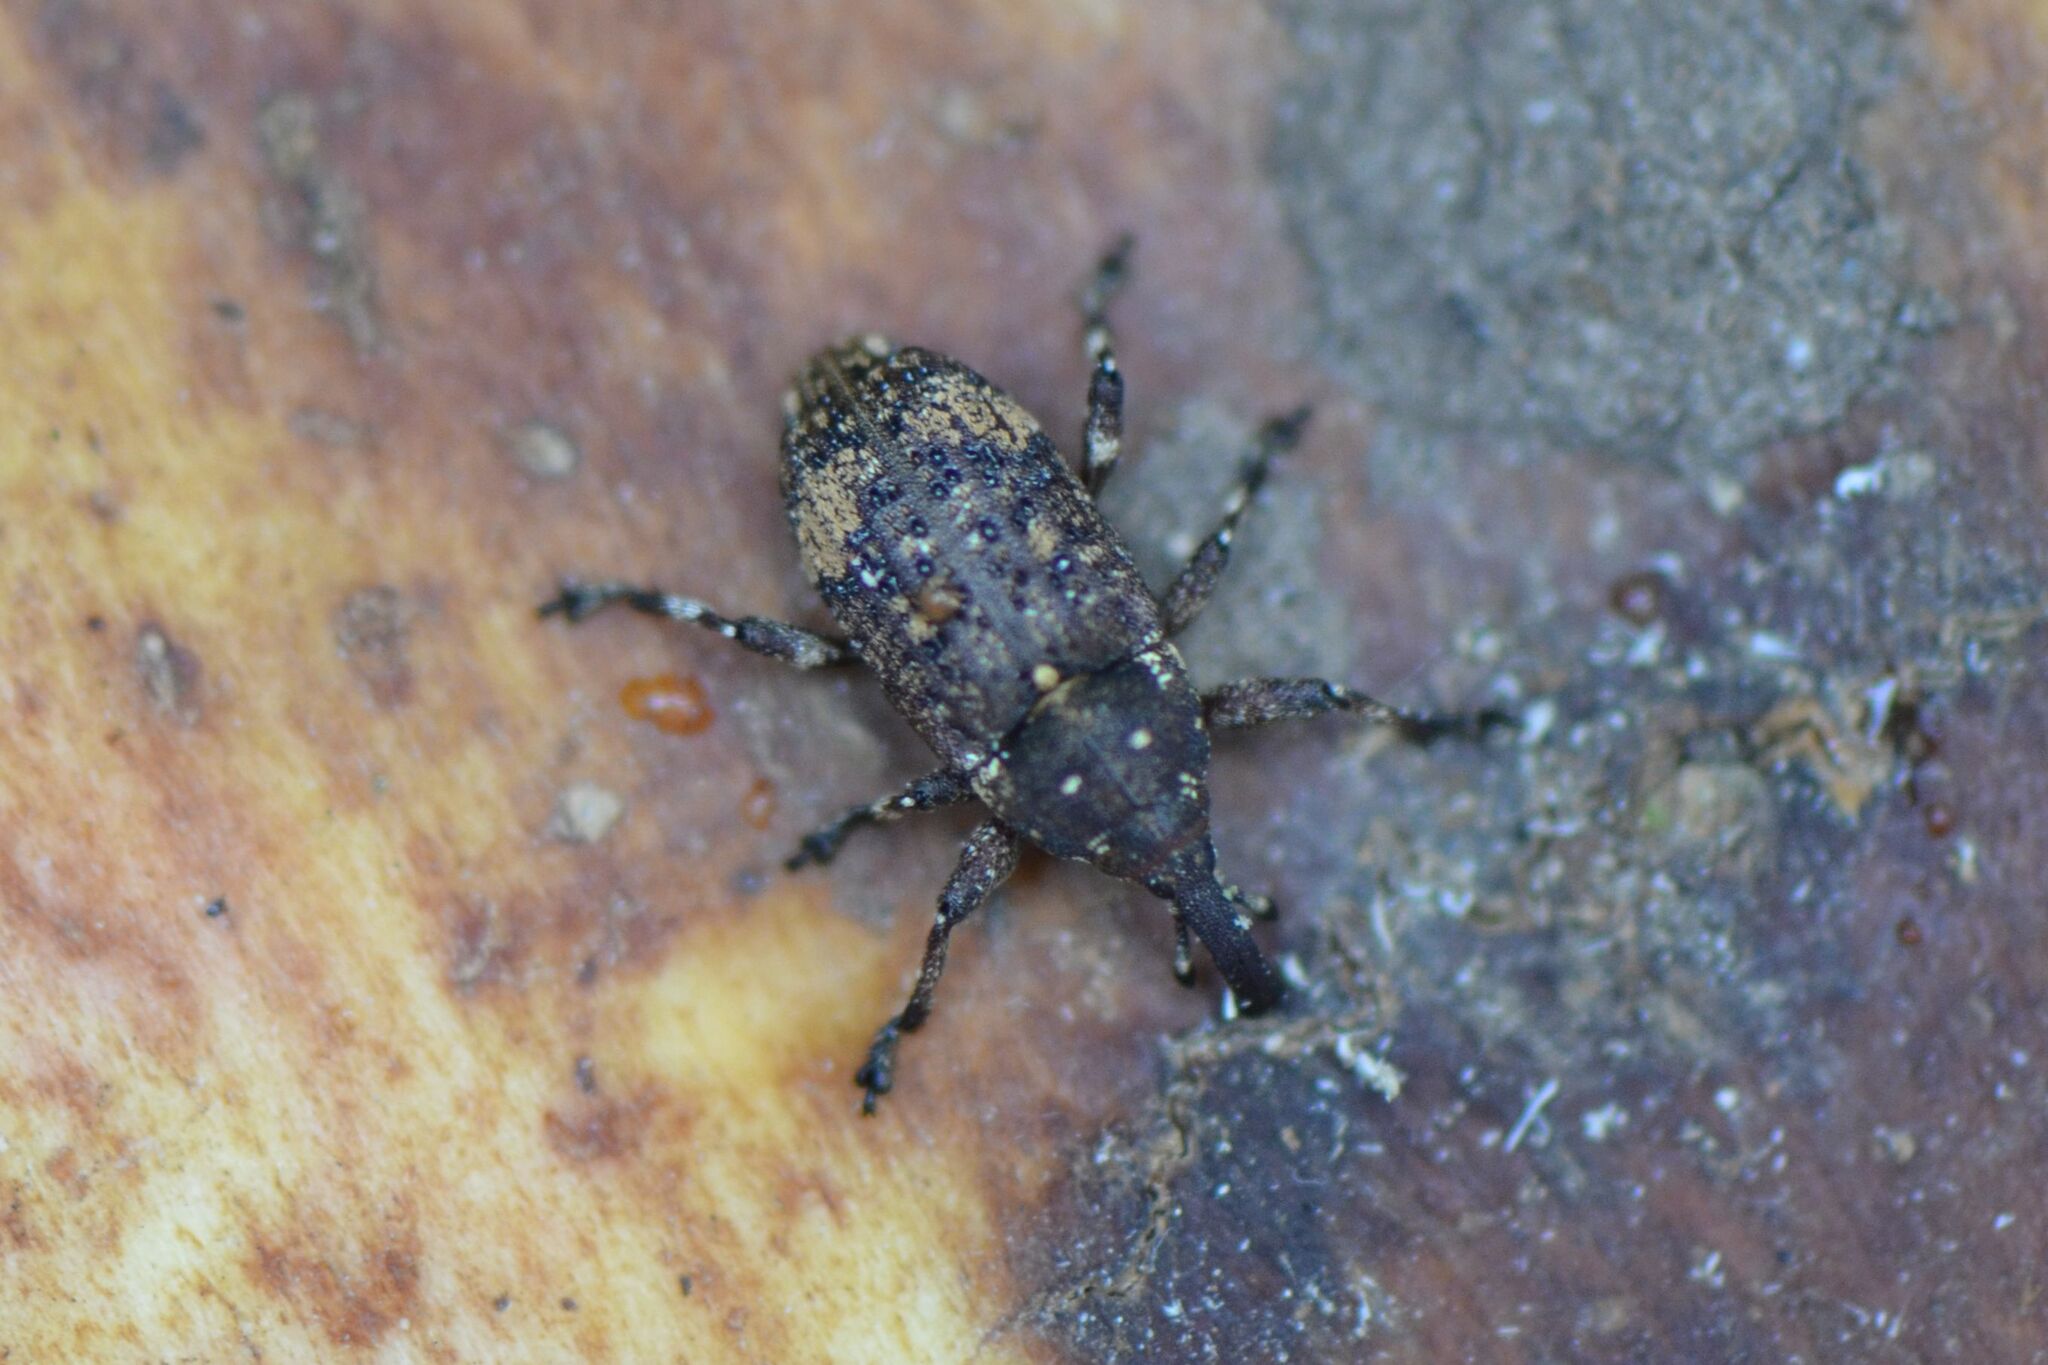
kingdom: Animalia
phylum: Arthropoda
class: Insecta
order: Coleoptera
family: Curculionidae
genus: Pissodes
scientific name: Pissodes piceae
